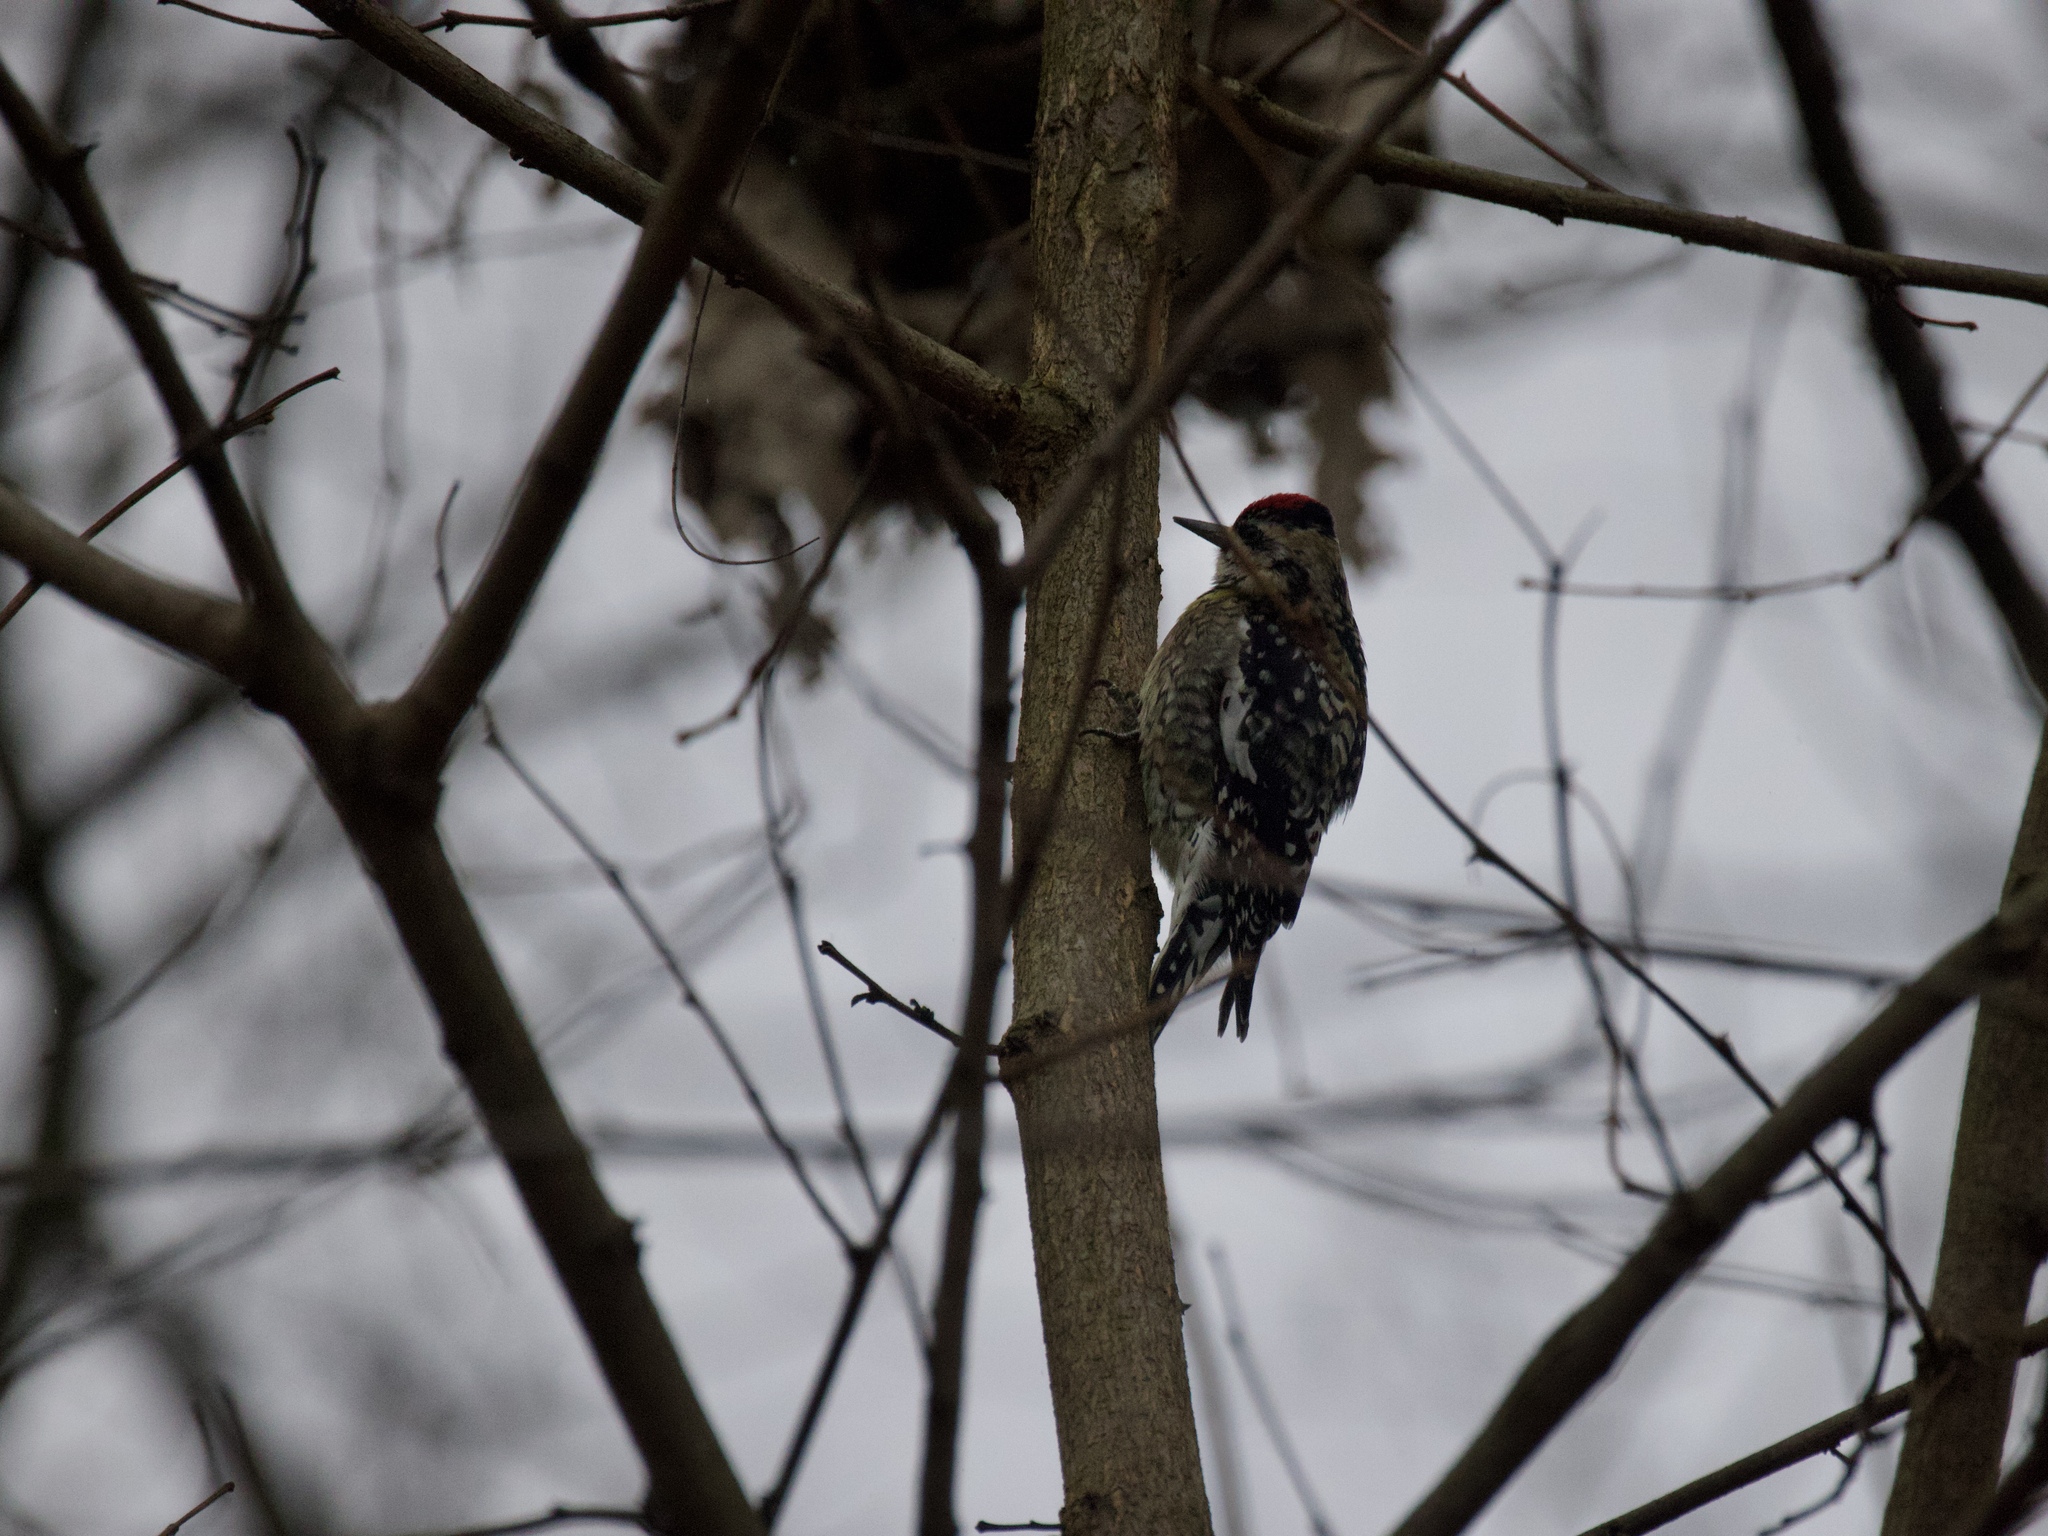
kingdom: Animalia
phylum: Chordata
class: Aves
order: Piciformes
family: Picidae
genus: Sphyrapicus
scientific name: Sphyrapicus varius
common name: Yellow-bellied sapsucker
